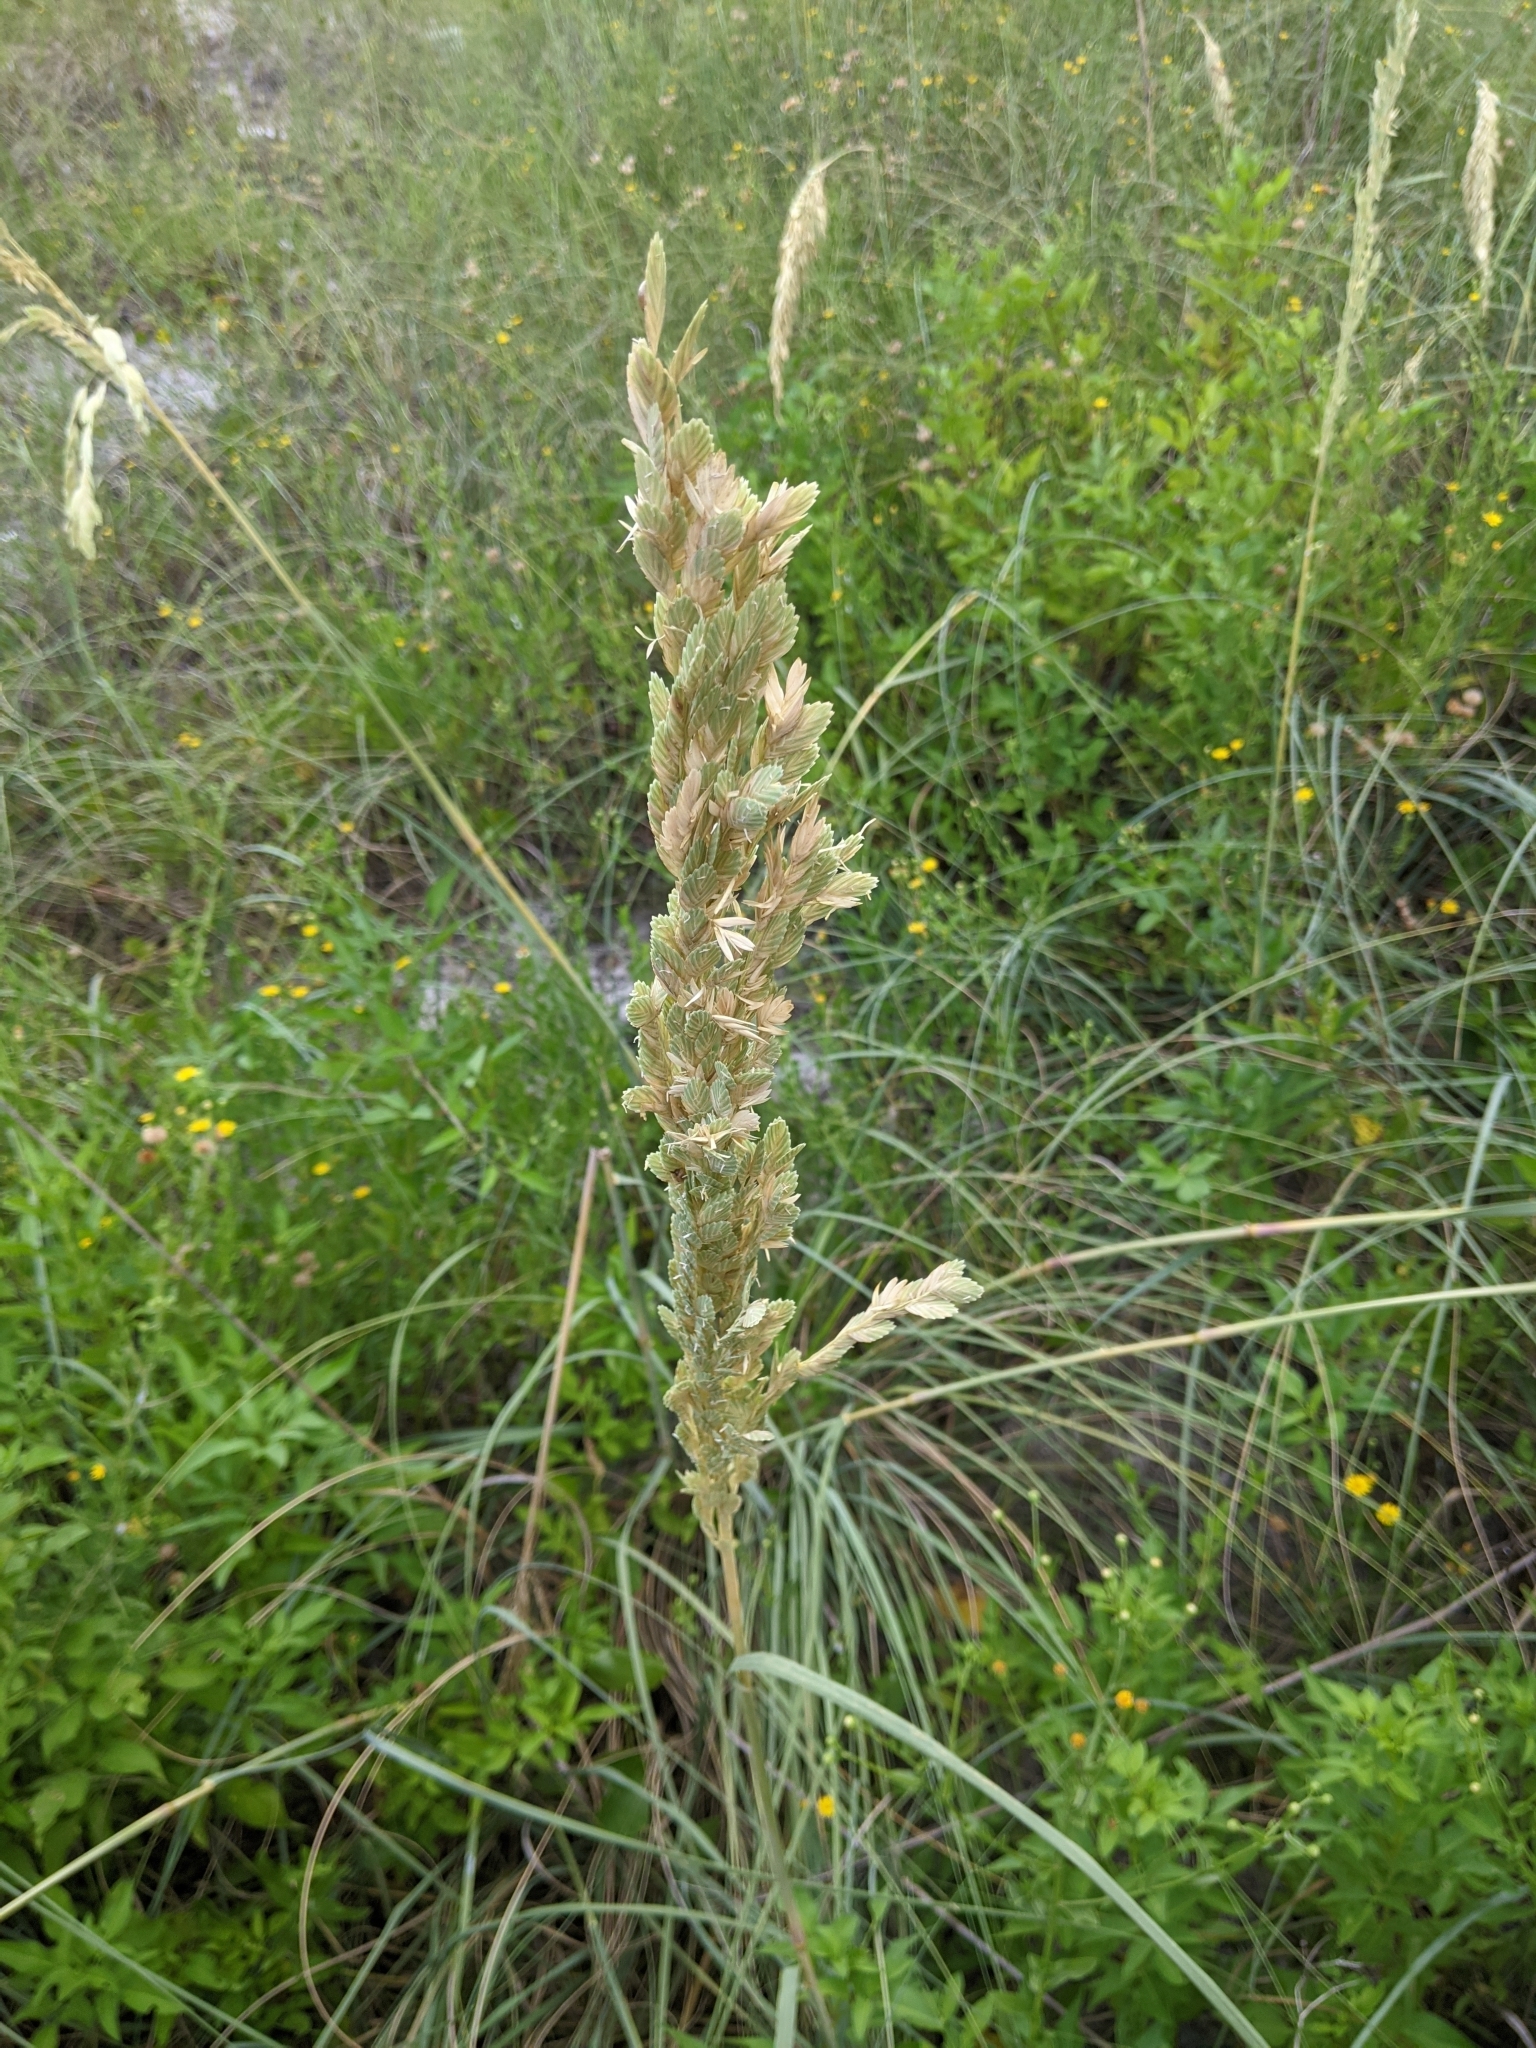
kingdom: Plantae
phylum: Tracheophyta
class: Liliopsida
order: Poales
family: Poaceae
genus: Uniola
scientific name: Uniola paniculata
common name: Seaside-oats
